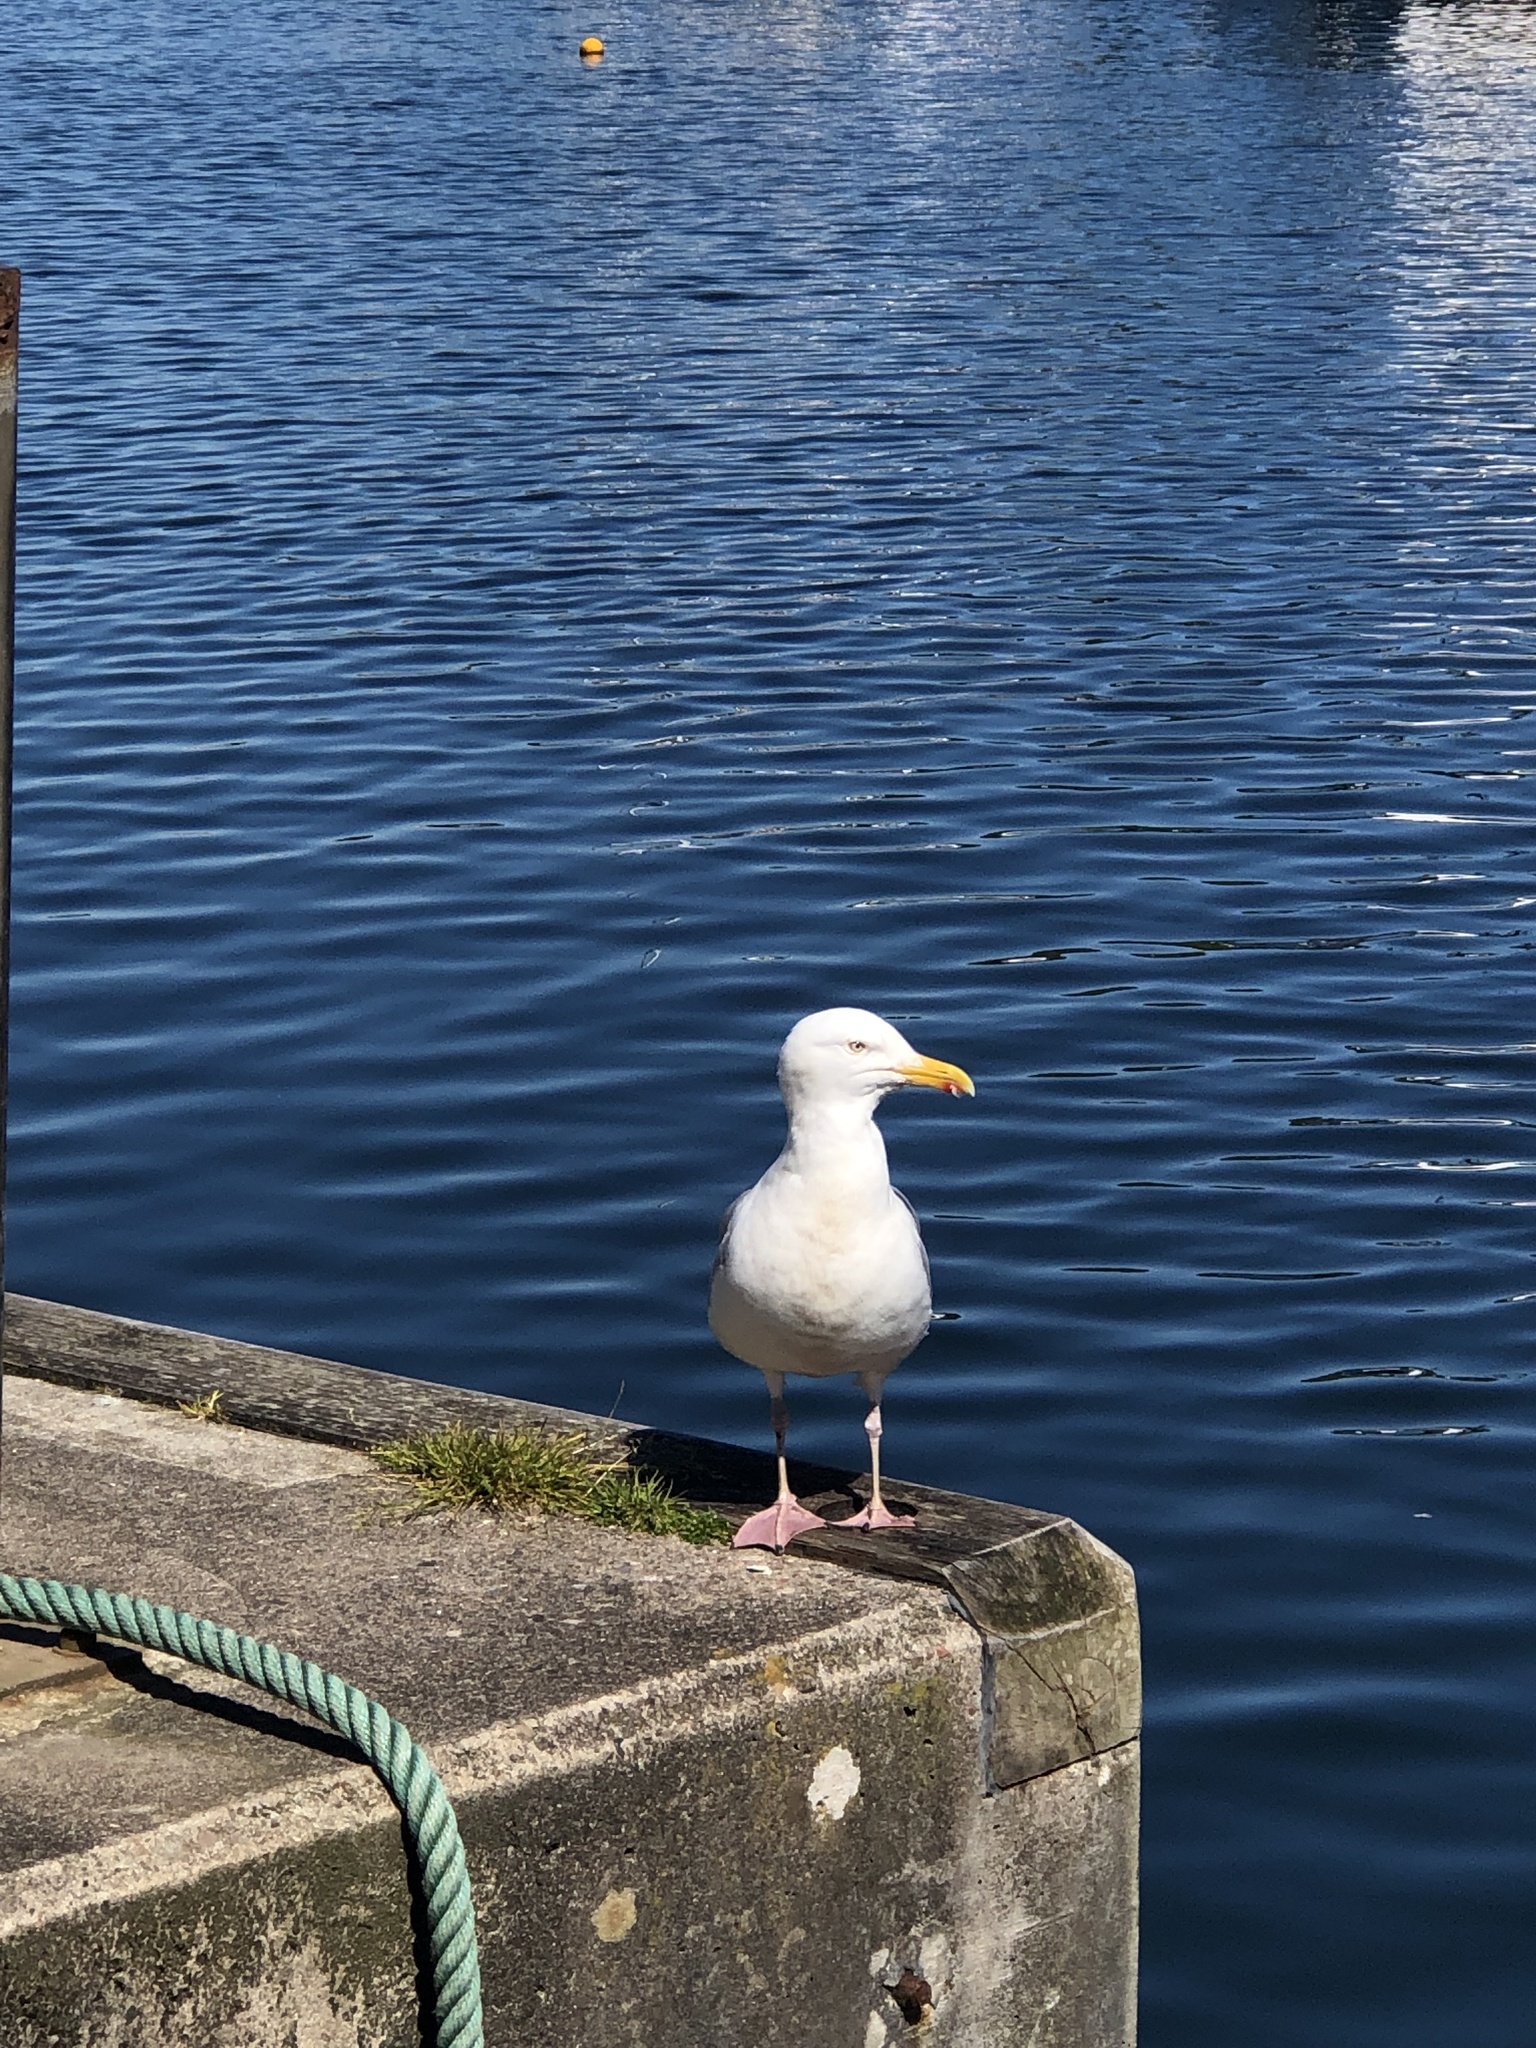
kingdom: Animalia
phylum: Chordata
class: Aves
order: Charadriiformes
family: Laridae
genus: Larus
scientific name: Larus argentatus
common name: Herring gull
